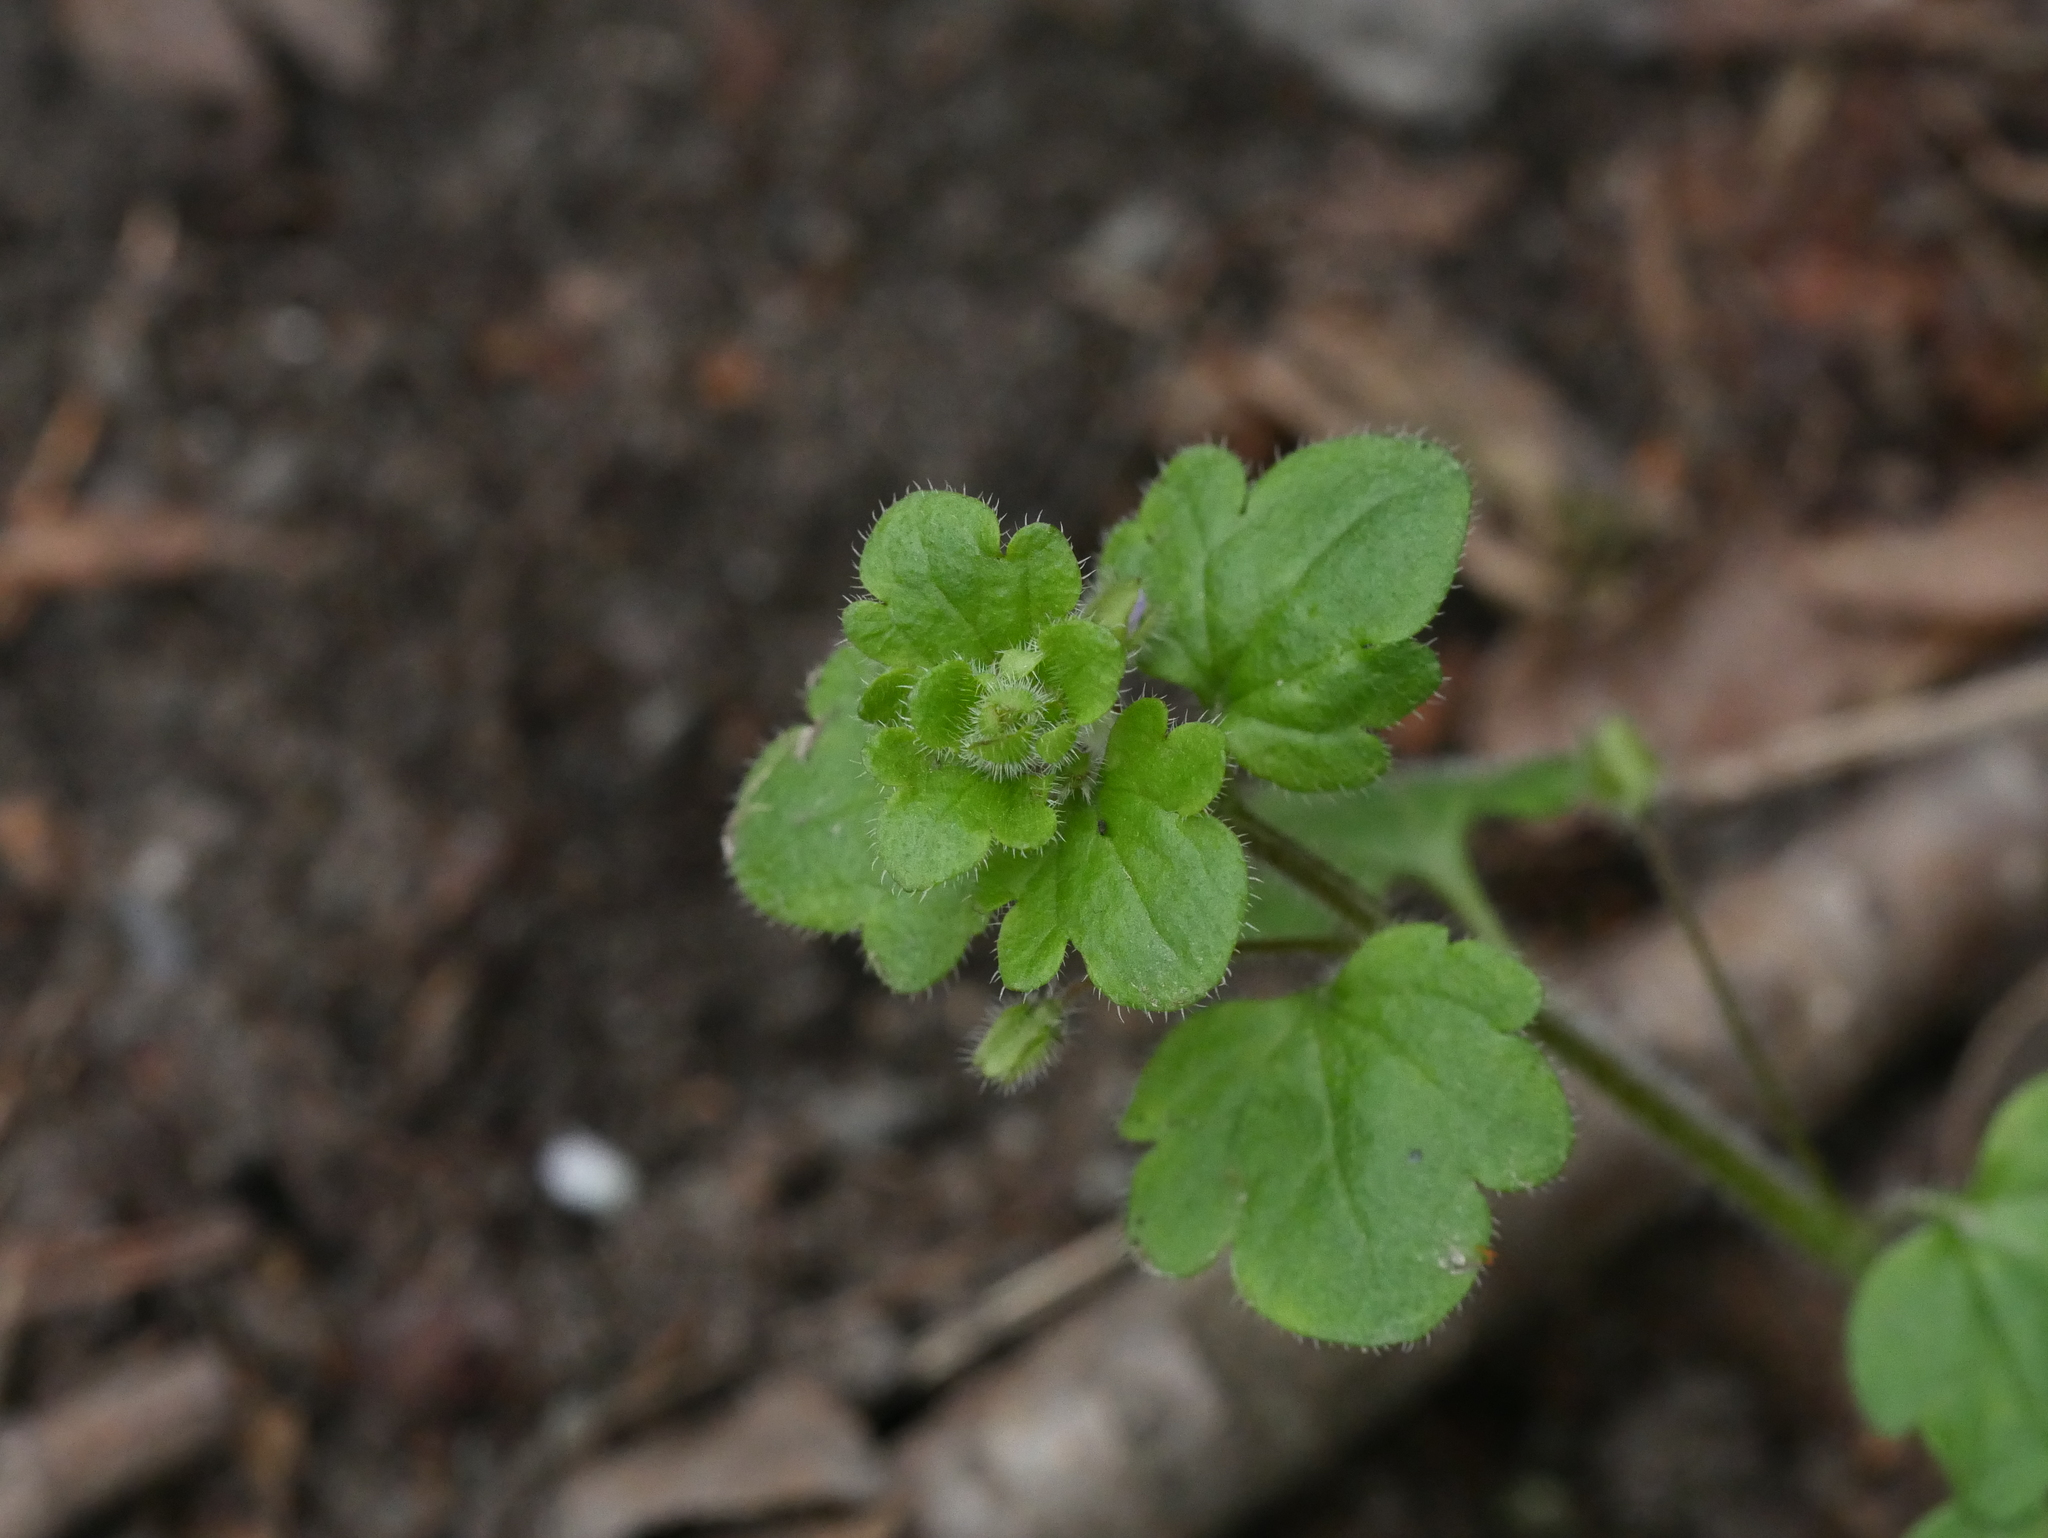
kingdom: Plantae
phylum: Tracheophyta
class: Magnoliopsida
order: Lamiales
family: Plantaginaceae
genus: Veronica
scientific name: Veronica sublobata
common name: False ivy-leaved speedwell
